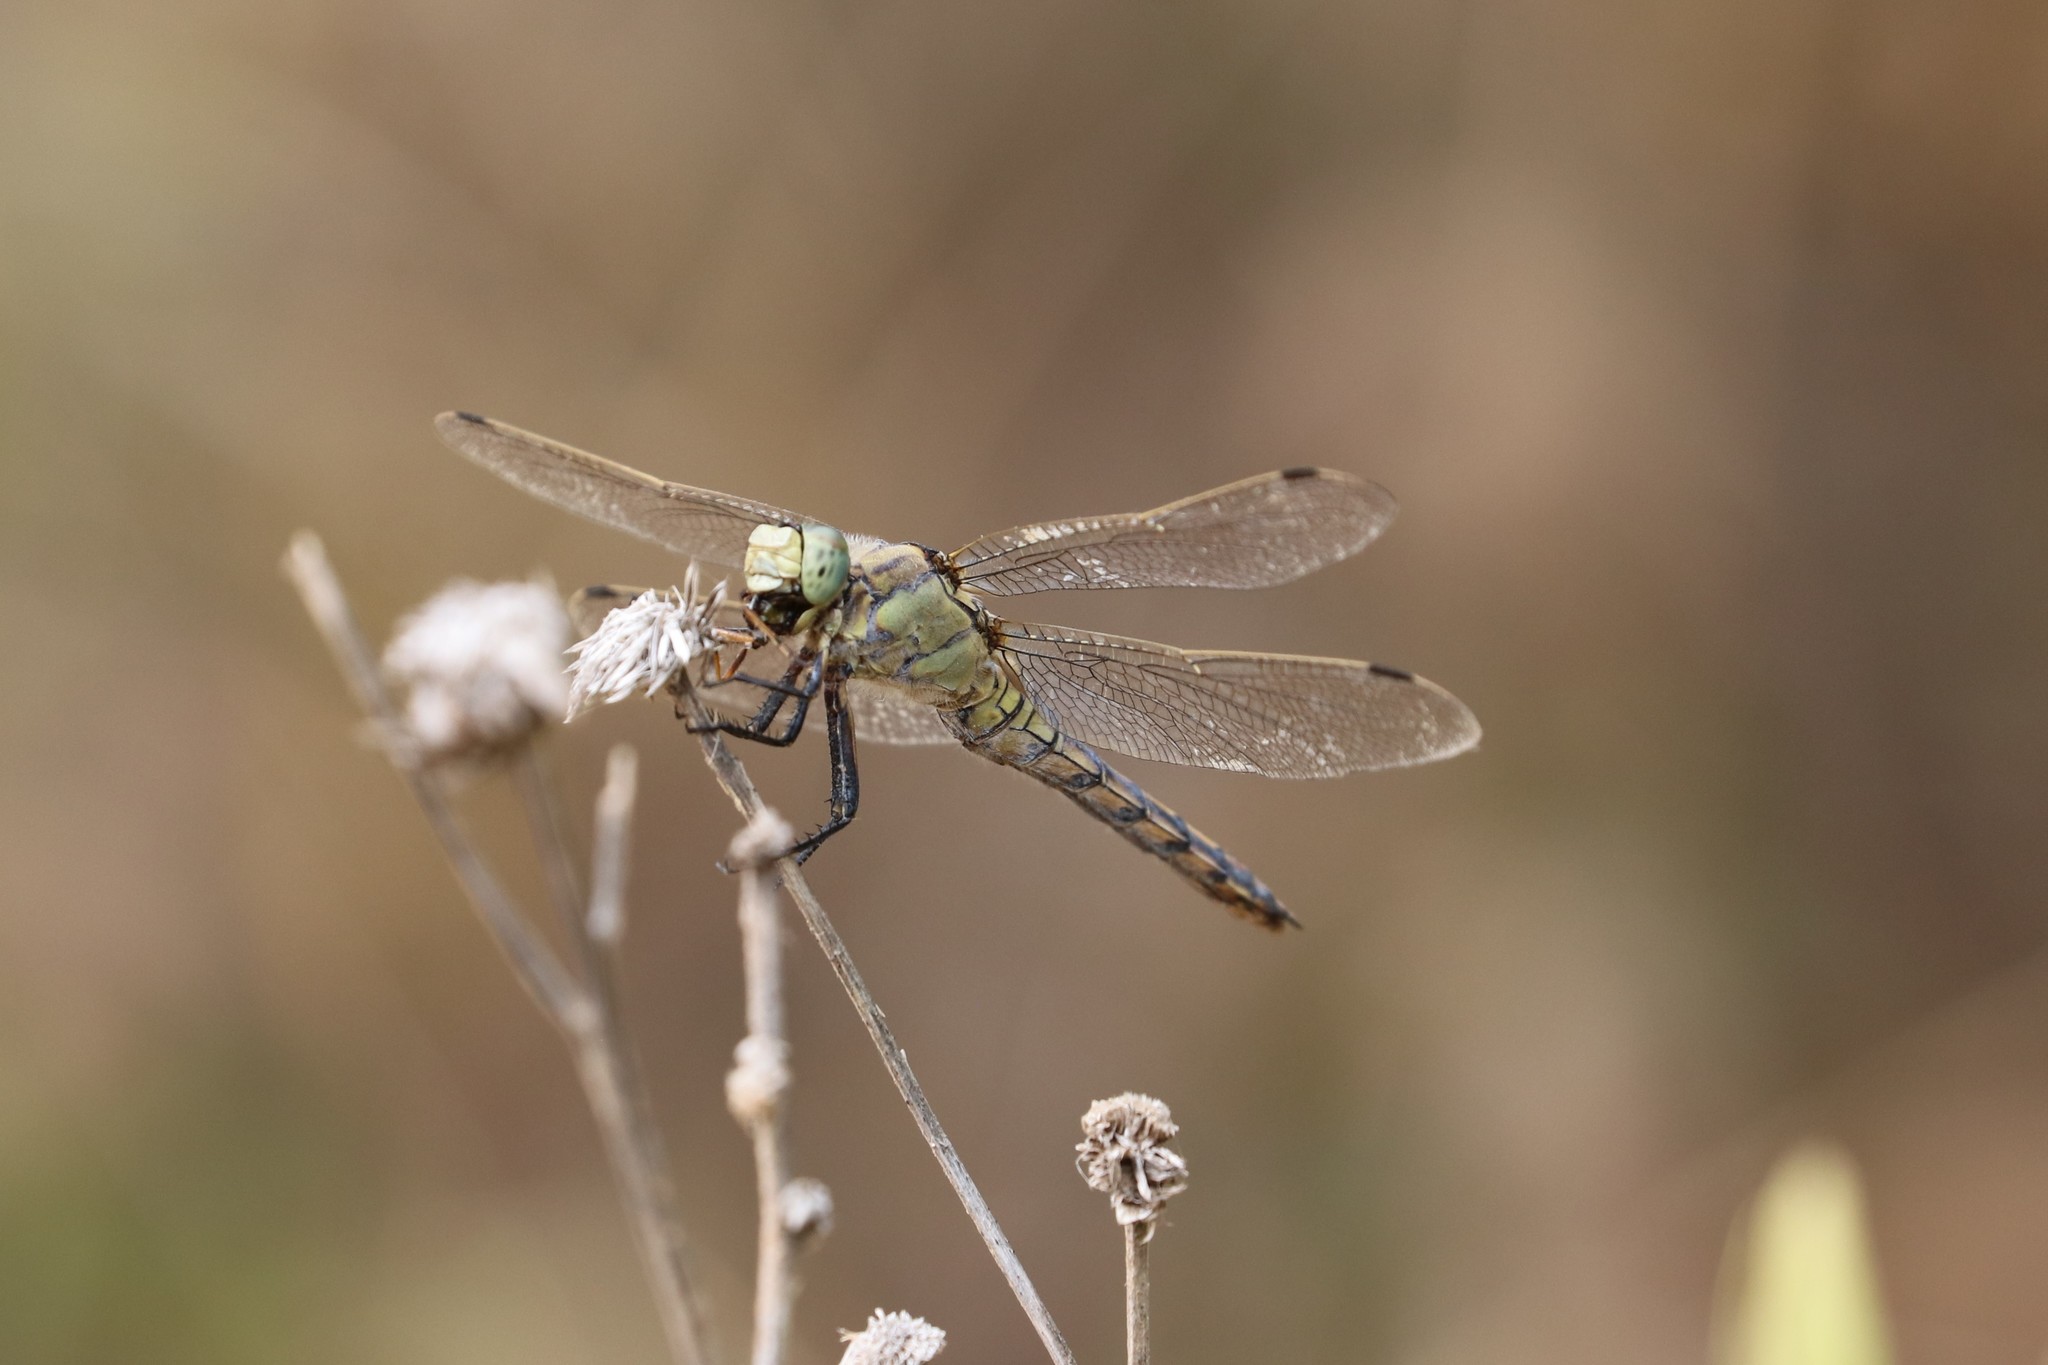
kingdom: Animalia
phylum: Arthropoda
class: Insecta
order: Odonata
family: Libellulidae
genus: Orthetrum
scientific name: Orthetrum cancellatum
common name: Black-tailed skimmer
